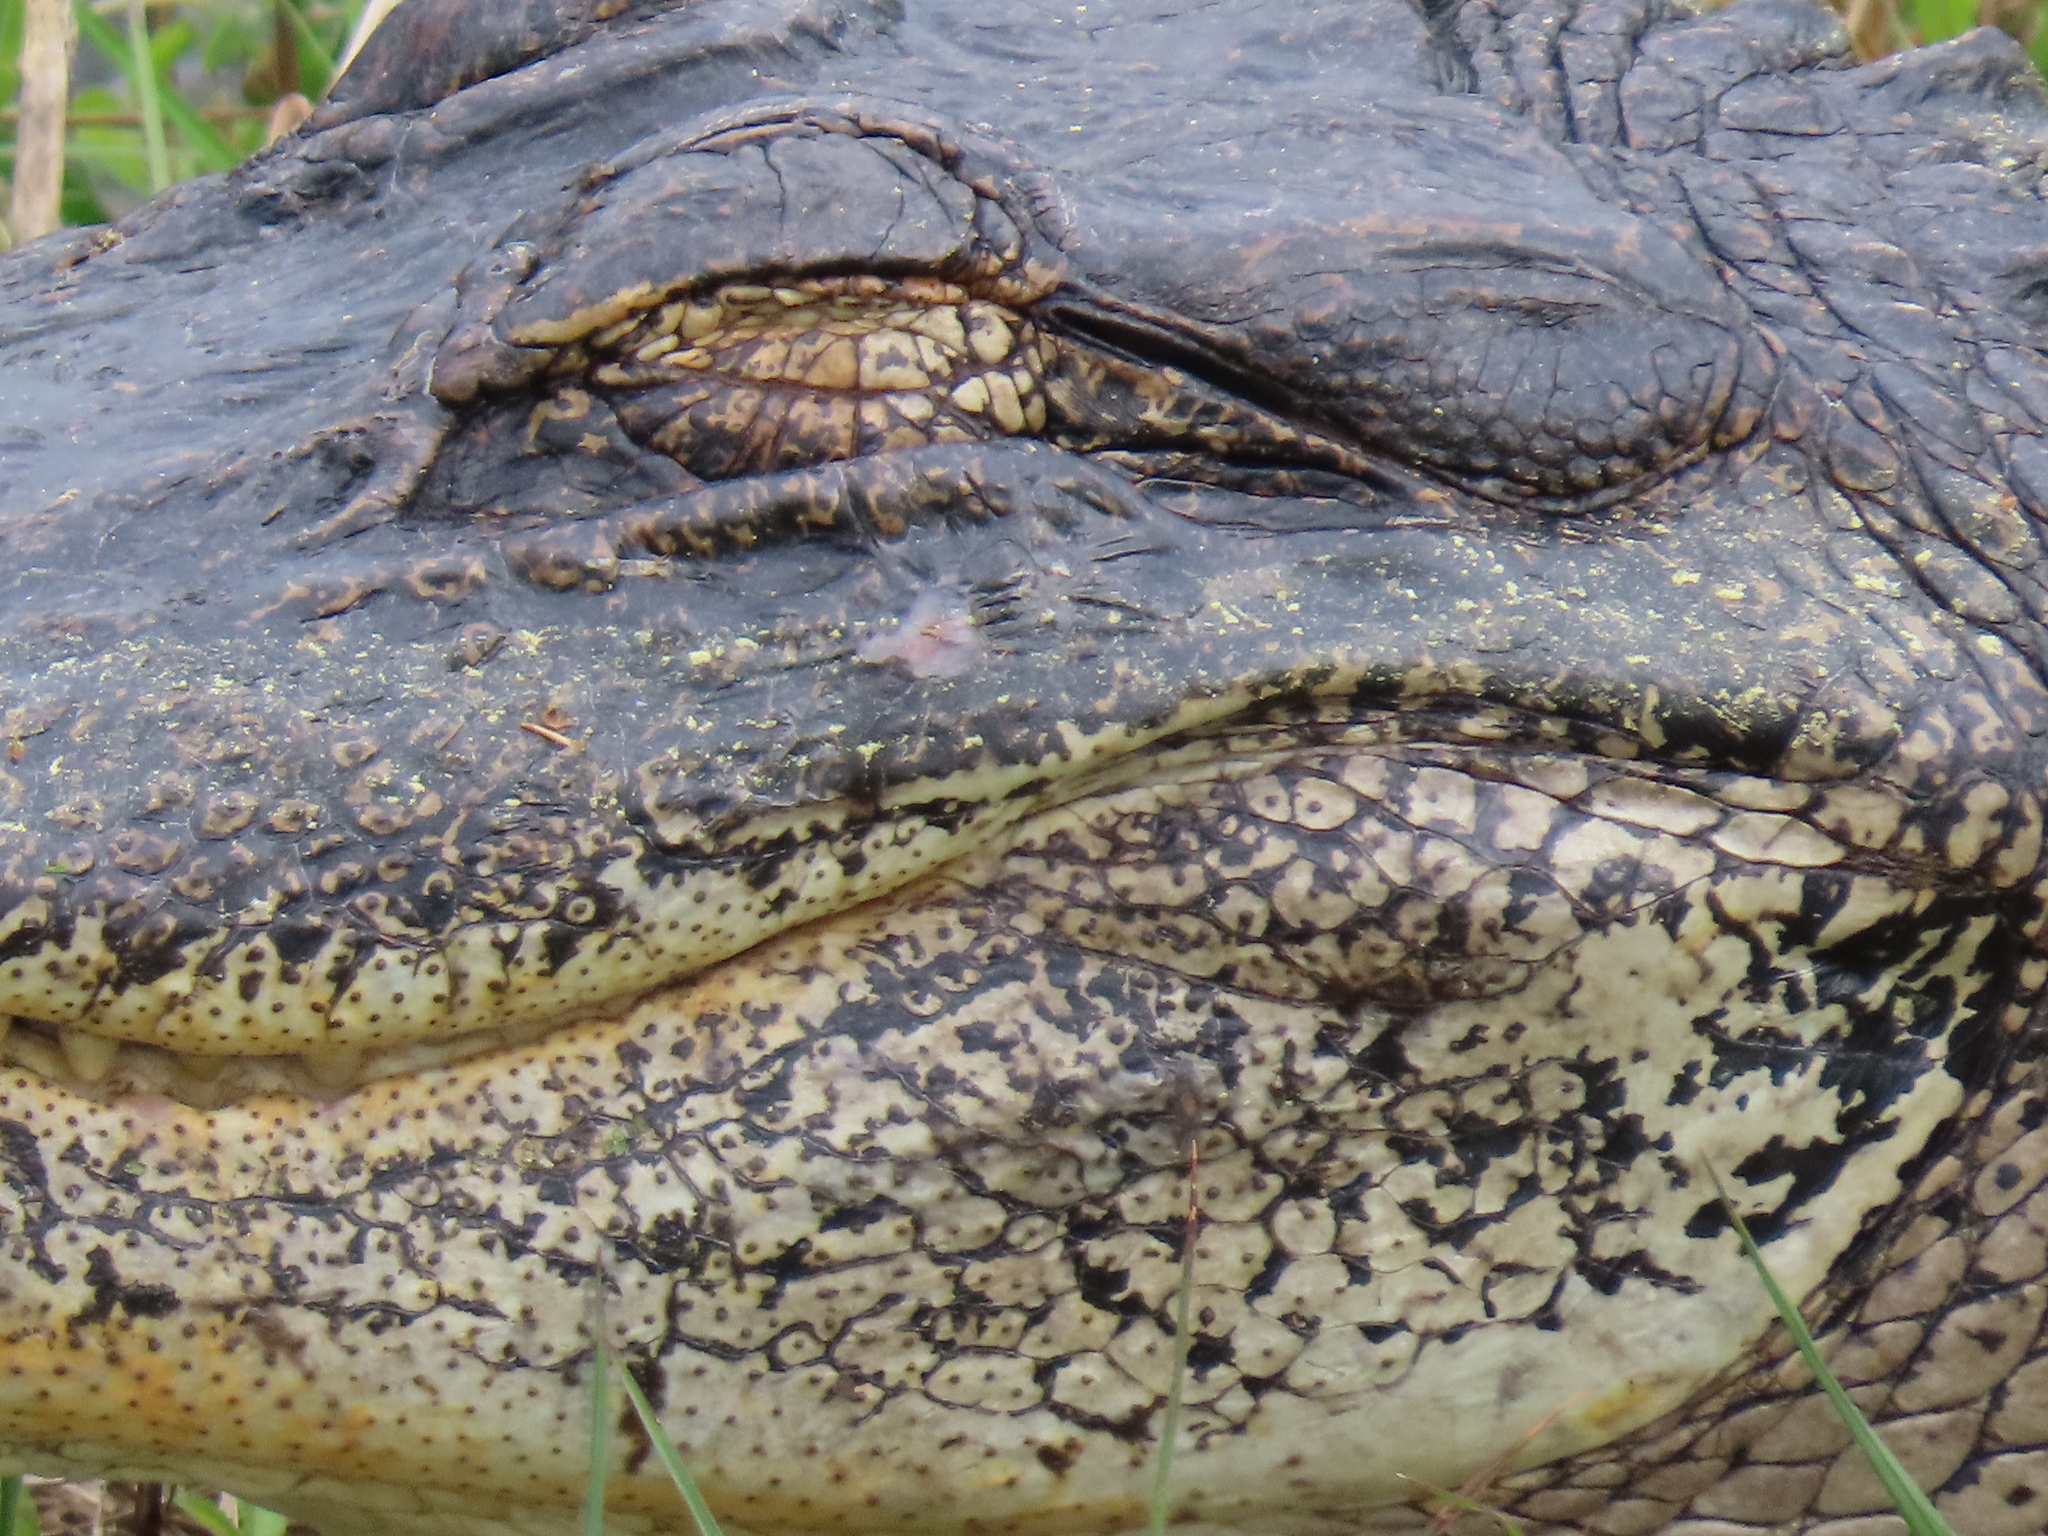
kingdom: Animalia
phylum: Chordata
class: Crocodylia
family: Alligatoridae
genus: Alligator
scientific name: Alligator mississippiensis
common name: American alligator
